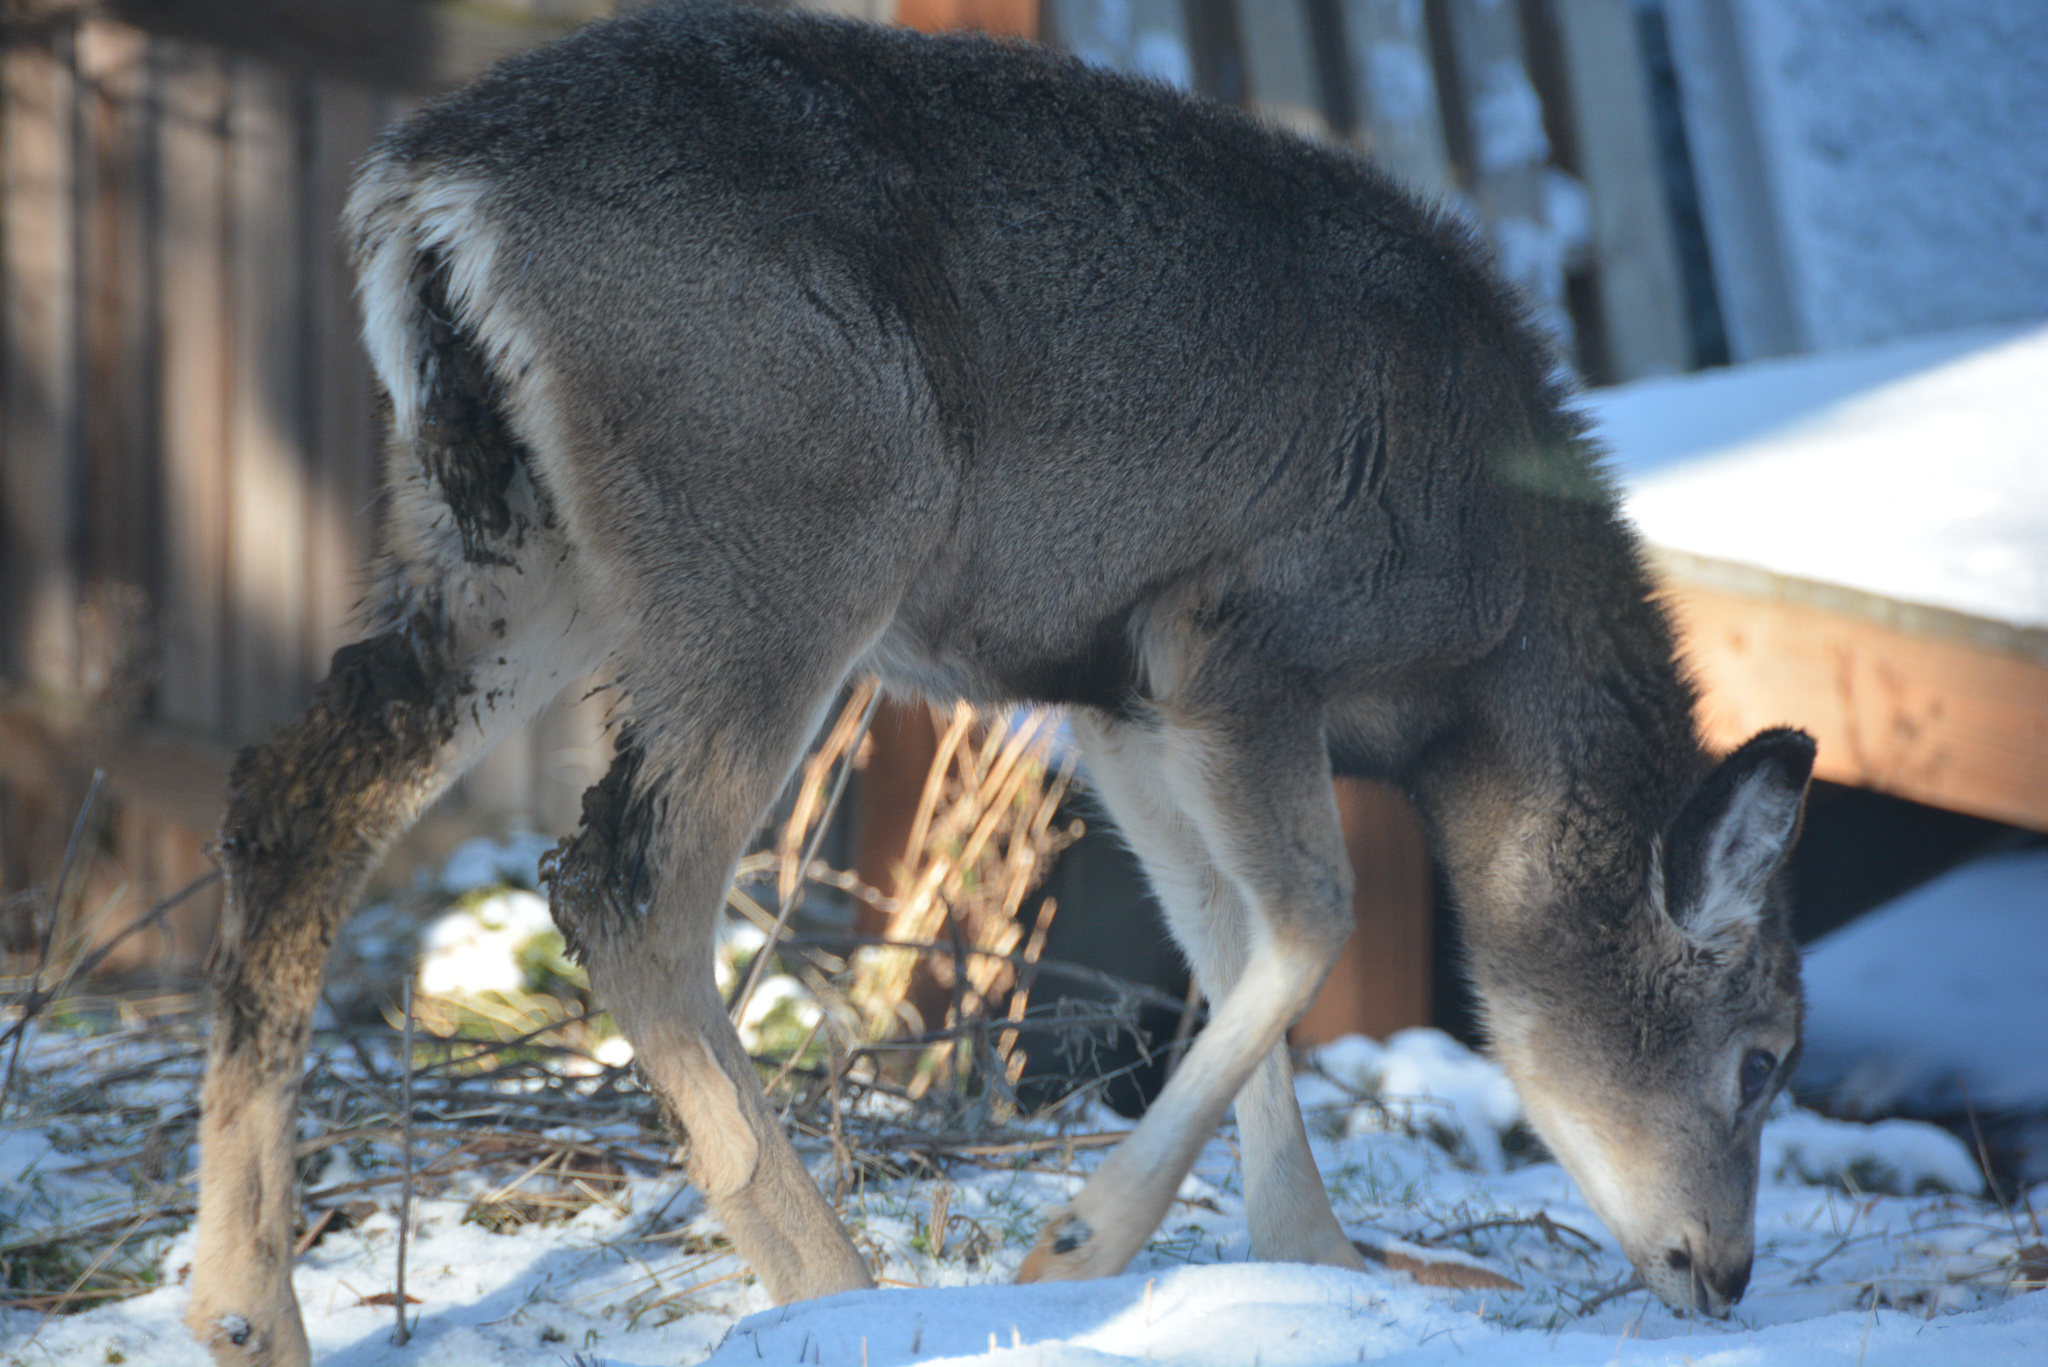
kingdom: Animalia
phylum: Chordata
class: Mammalia
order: Artiodactyla
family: Cervidae
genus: Odocoileus
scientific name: Odocoileus hemionus
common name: Mule deer
